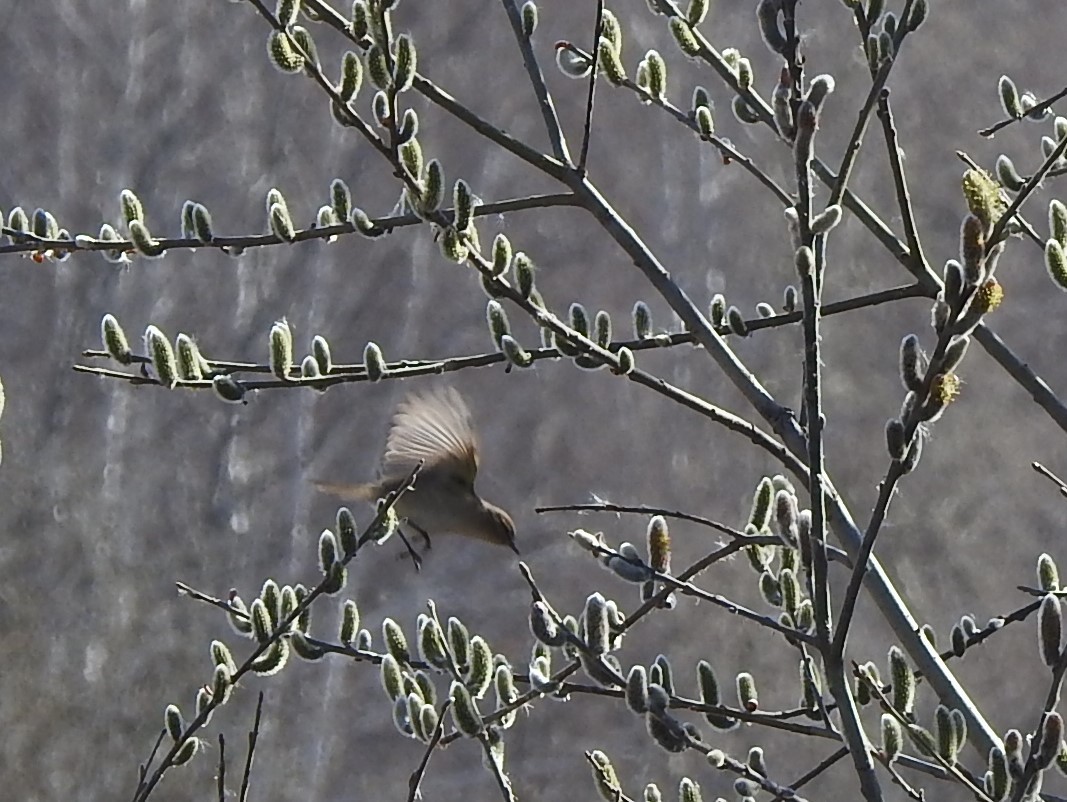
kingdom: Animalia
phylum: Chordata
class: Aves
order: Passeriformes
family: Phylloscopidae
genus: Phylloscopus
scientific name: Phylloscopus collybita
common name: Common chiffchaff
